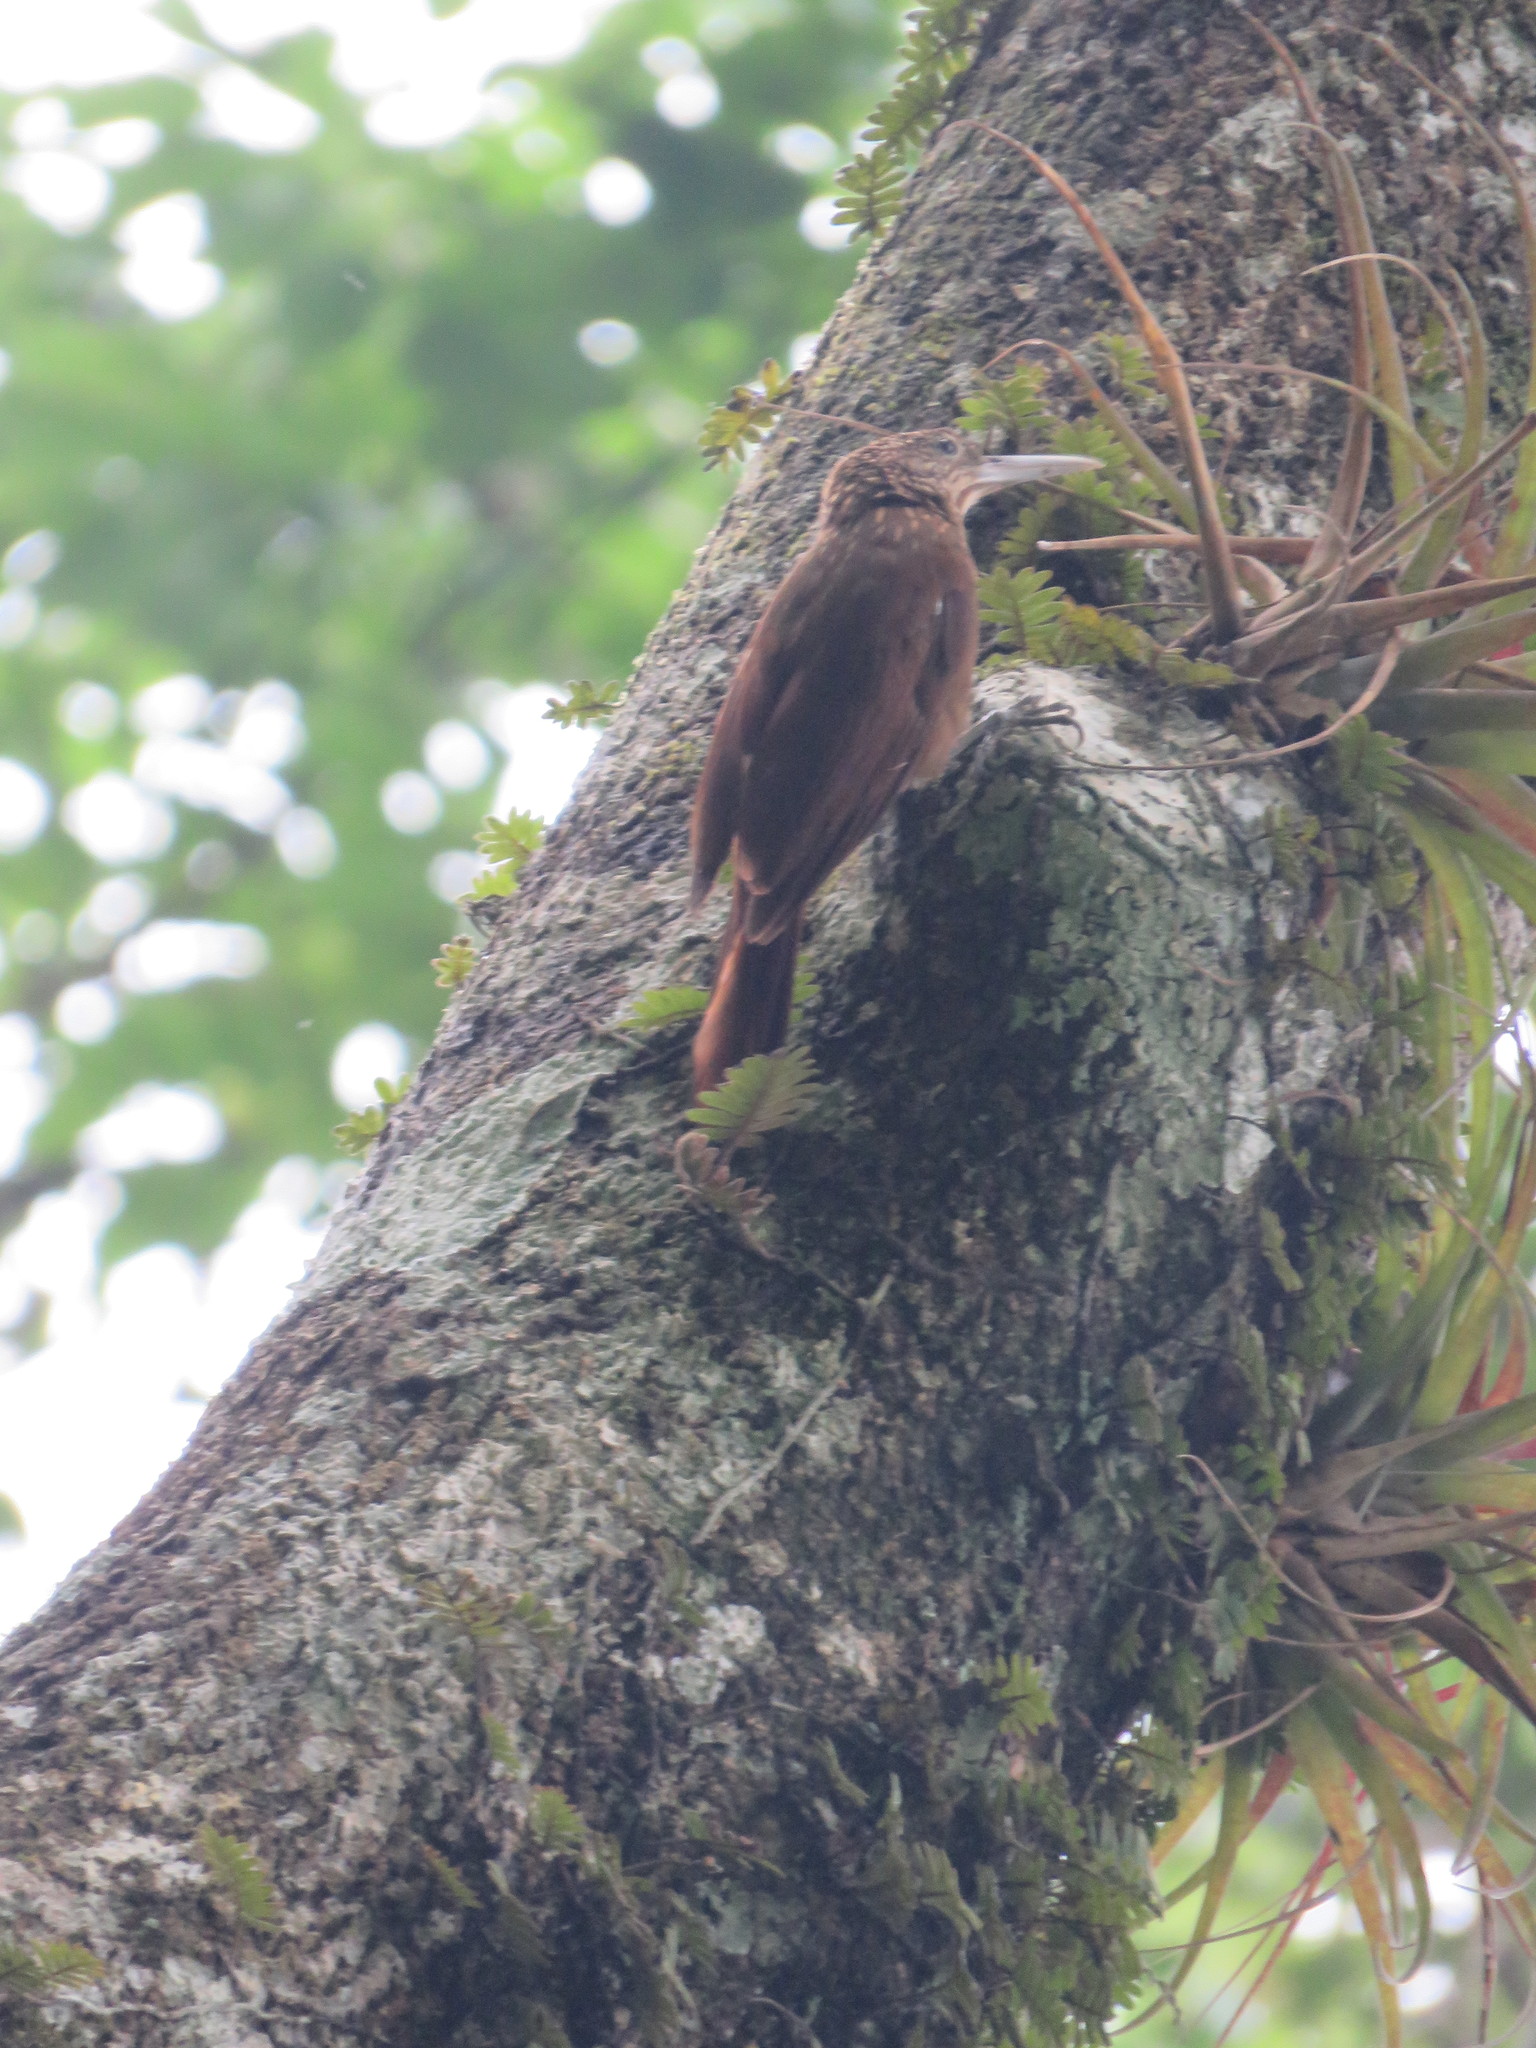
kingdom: Animalia
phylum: Chordata
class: Aves
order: Passeriformes
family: Furnariidae
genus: Xiphorhynchus
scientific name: Xiphorhynchus ocellatus
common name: Ocellated woodcreeper
